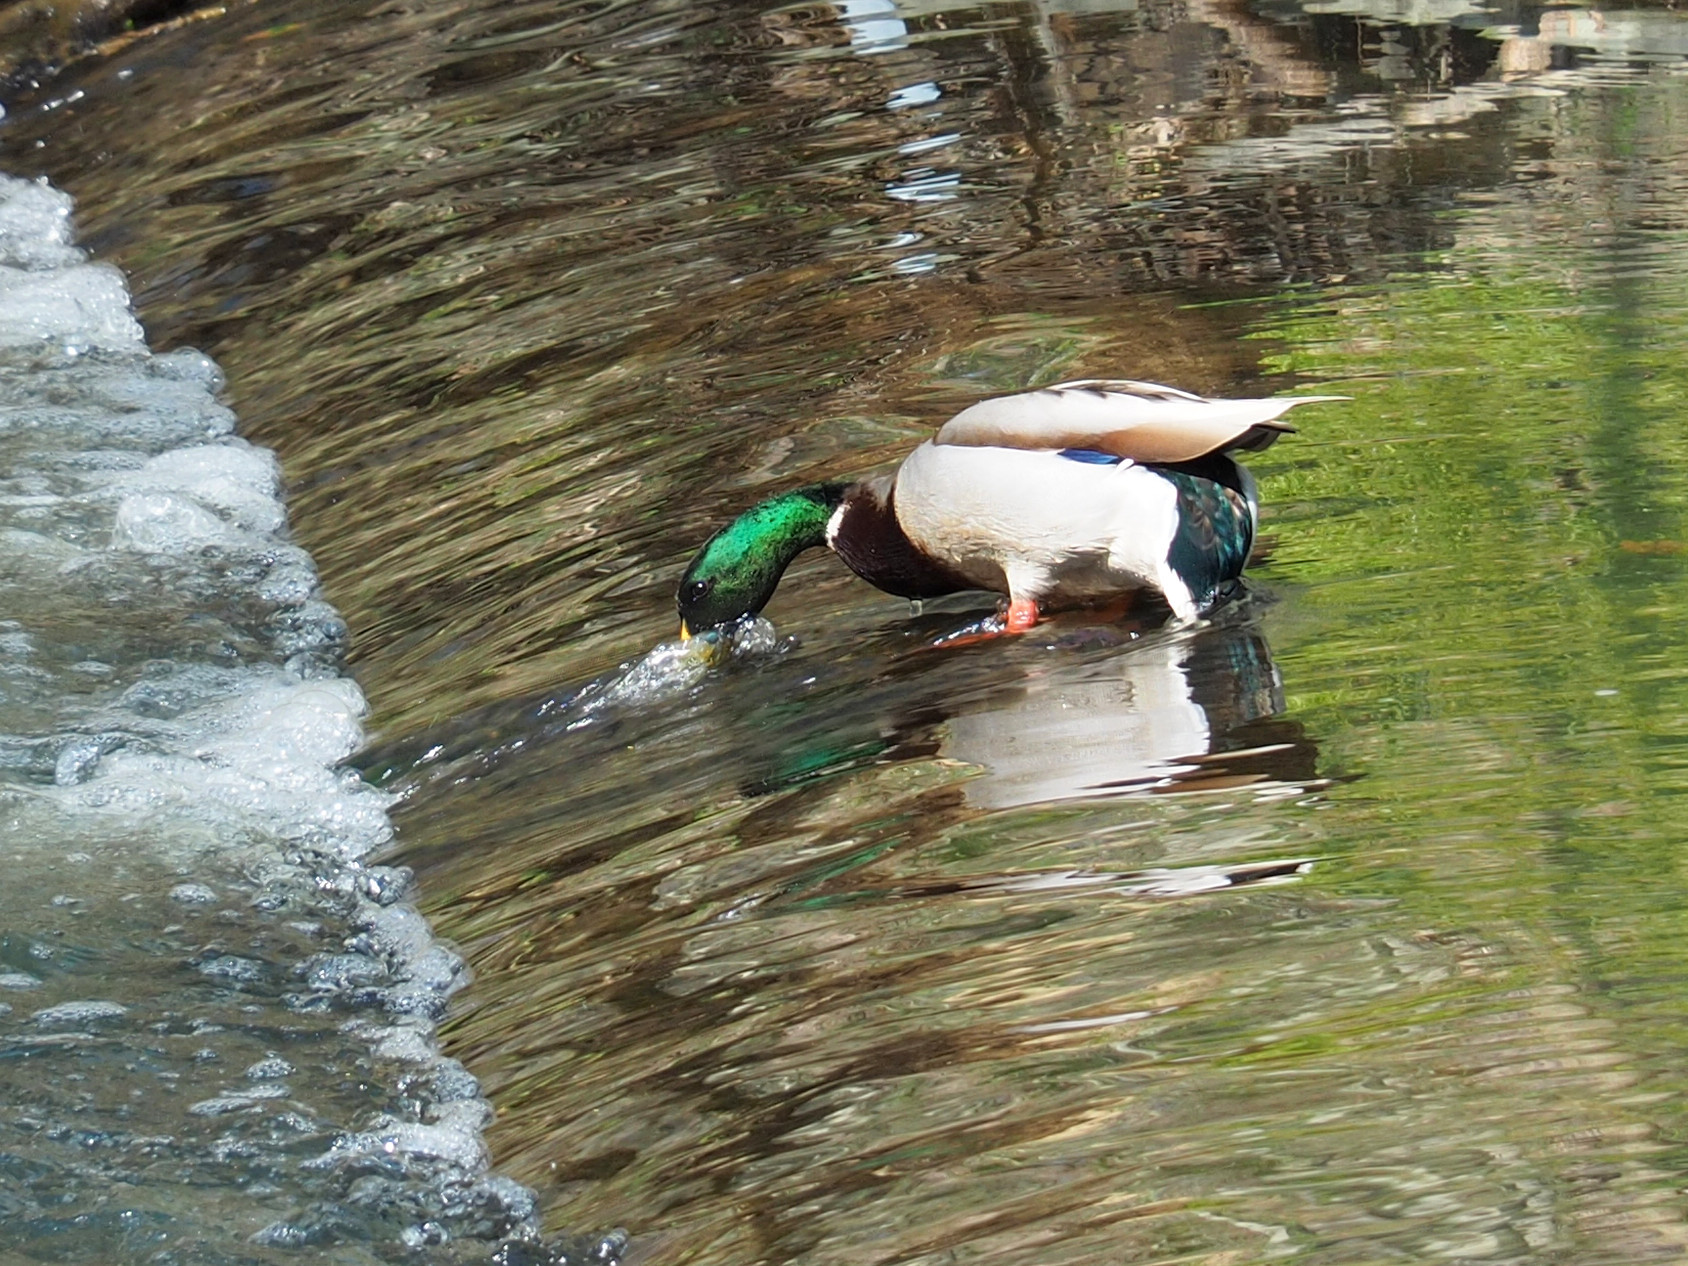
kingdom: Animalia
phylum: Chordata
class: Aves
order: Anseriformes
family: Anatidae
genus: Anas
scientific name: Anas platyrhynchos
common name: Mallard
